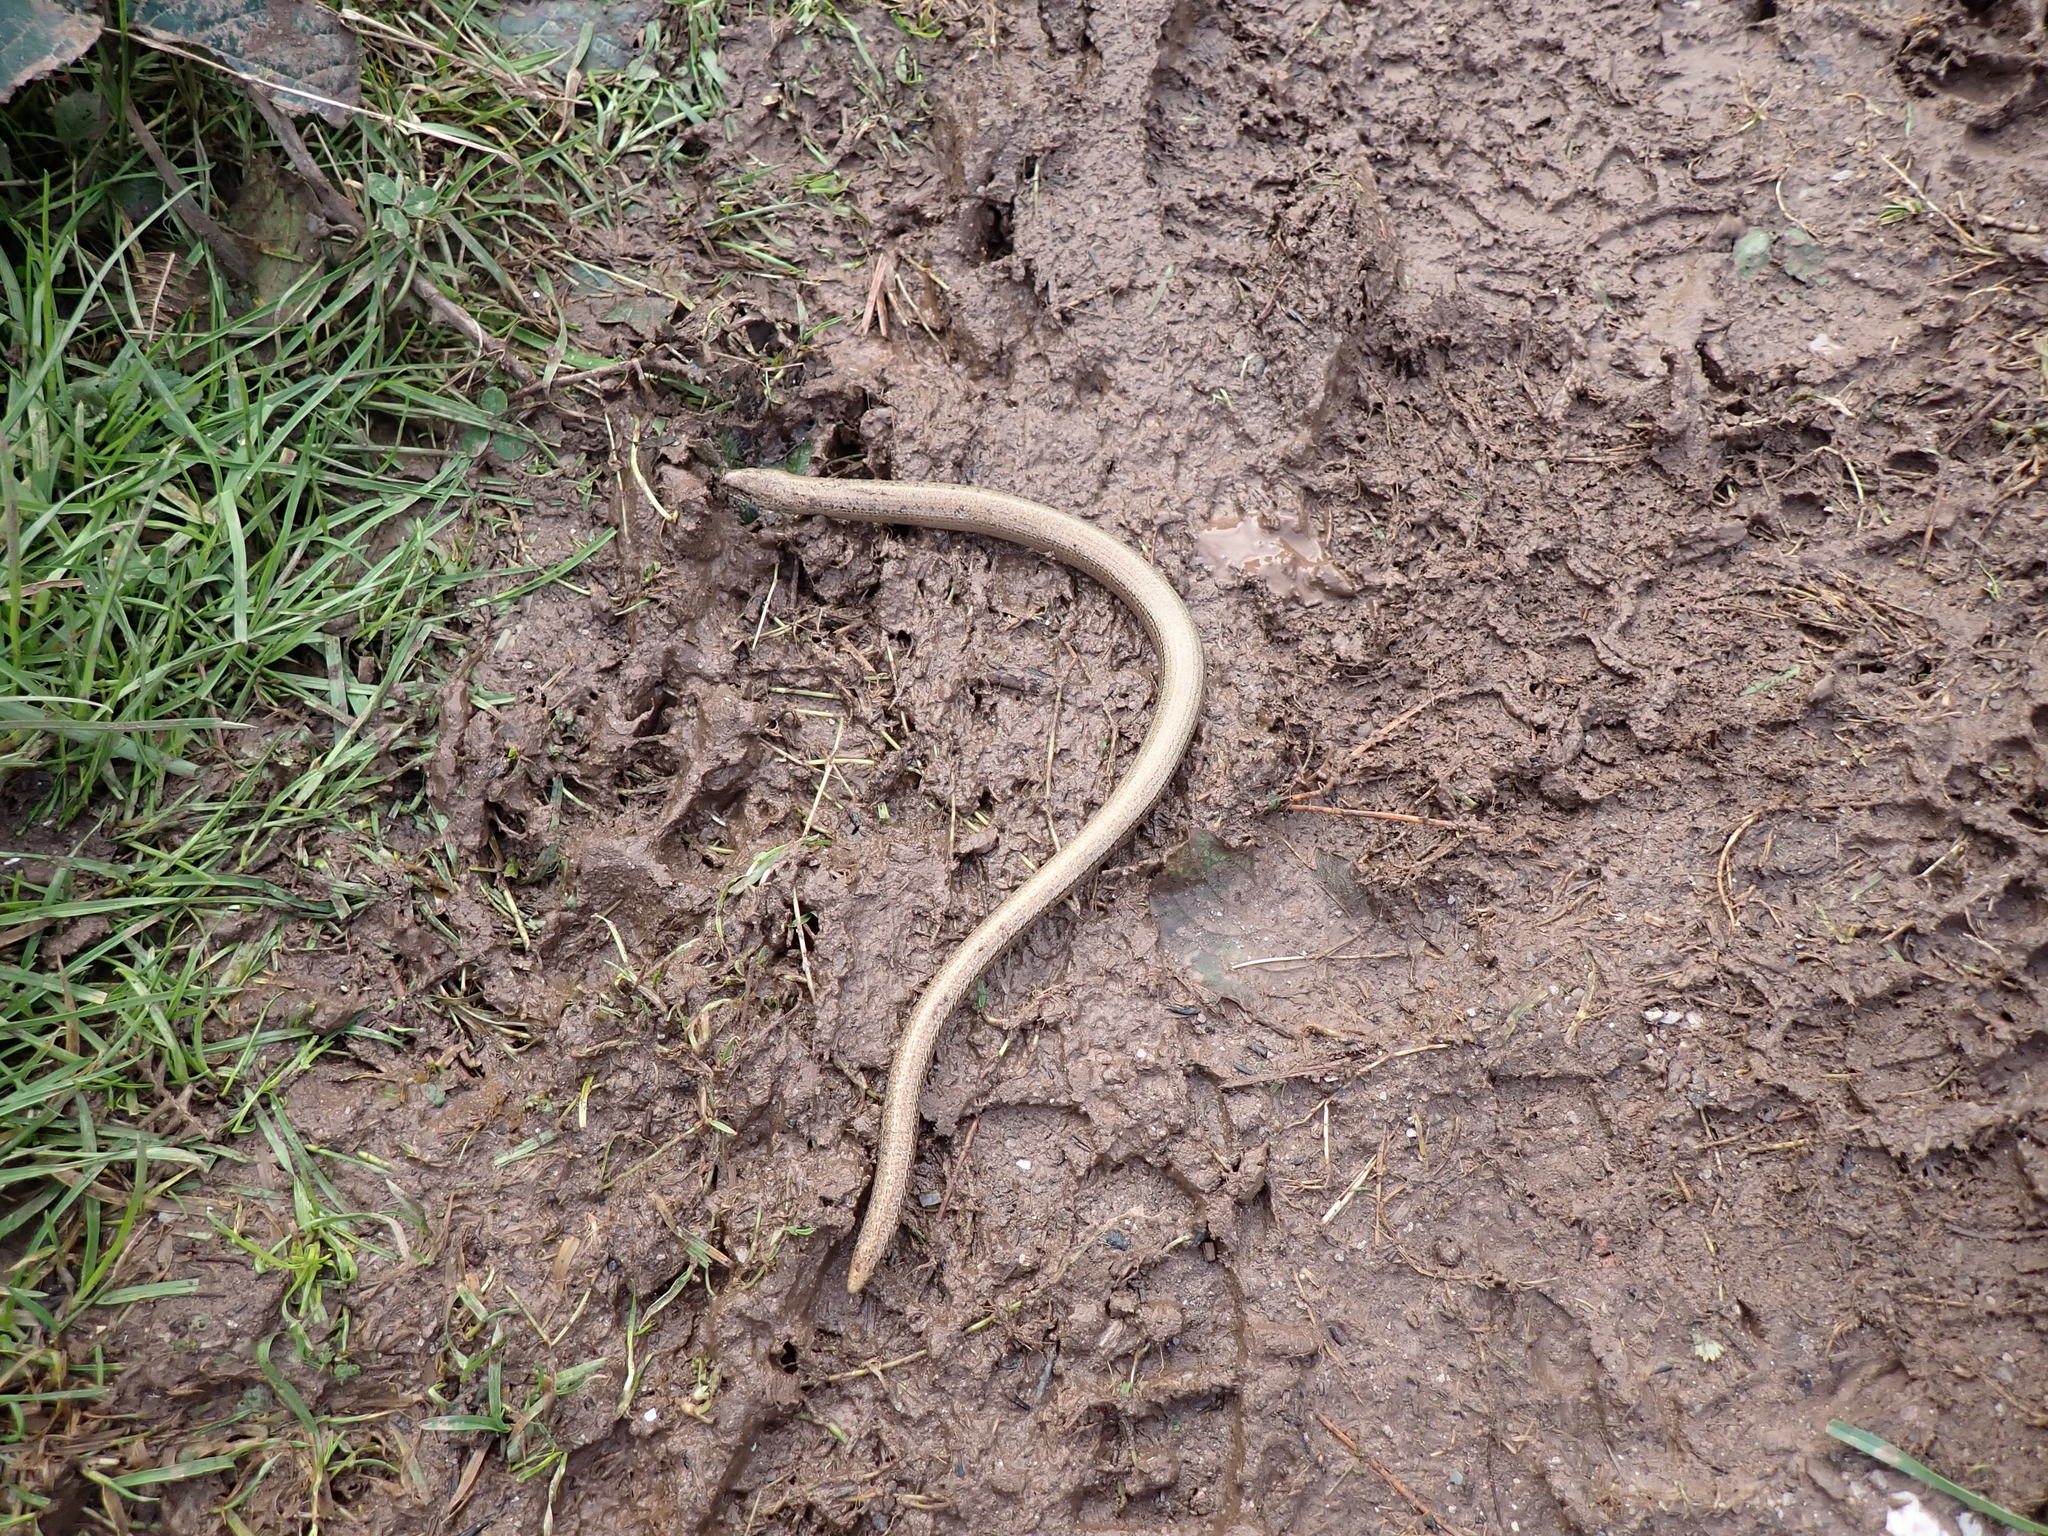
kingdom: Animalia
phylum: Chordata
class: Squamata
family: Anguidae
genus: Anguis
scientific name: Anguis fragilis
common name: Slow worm
